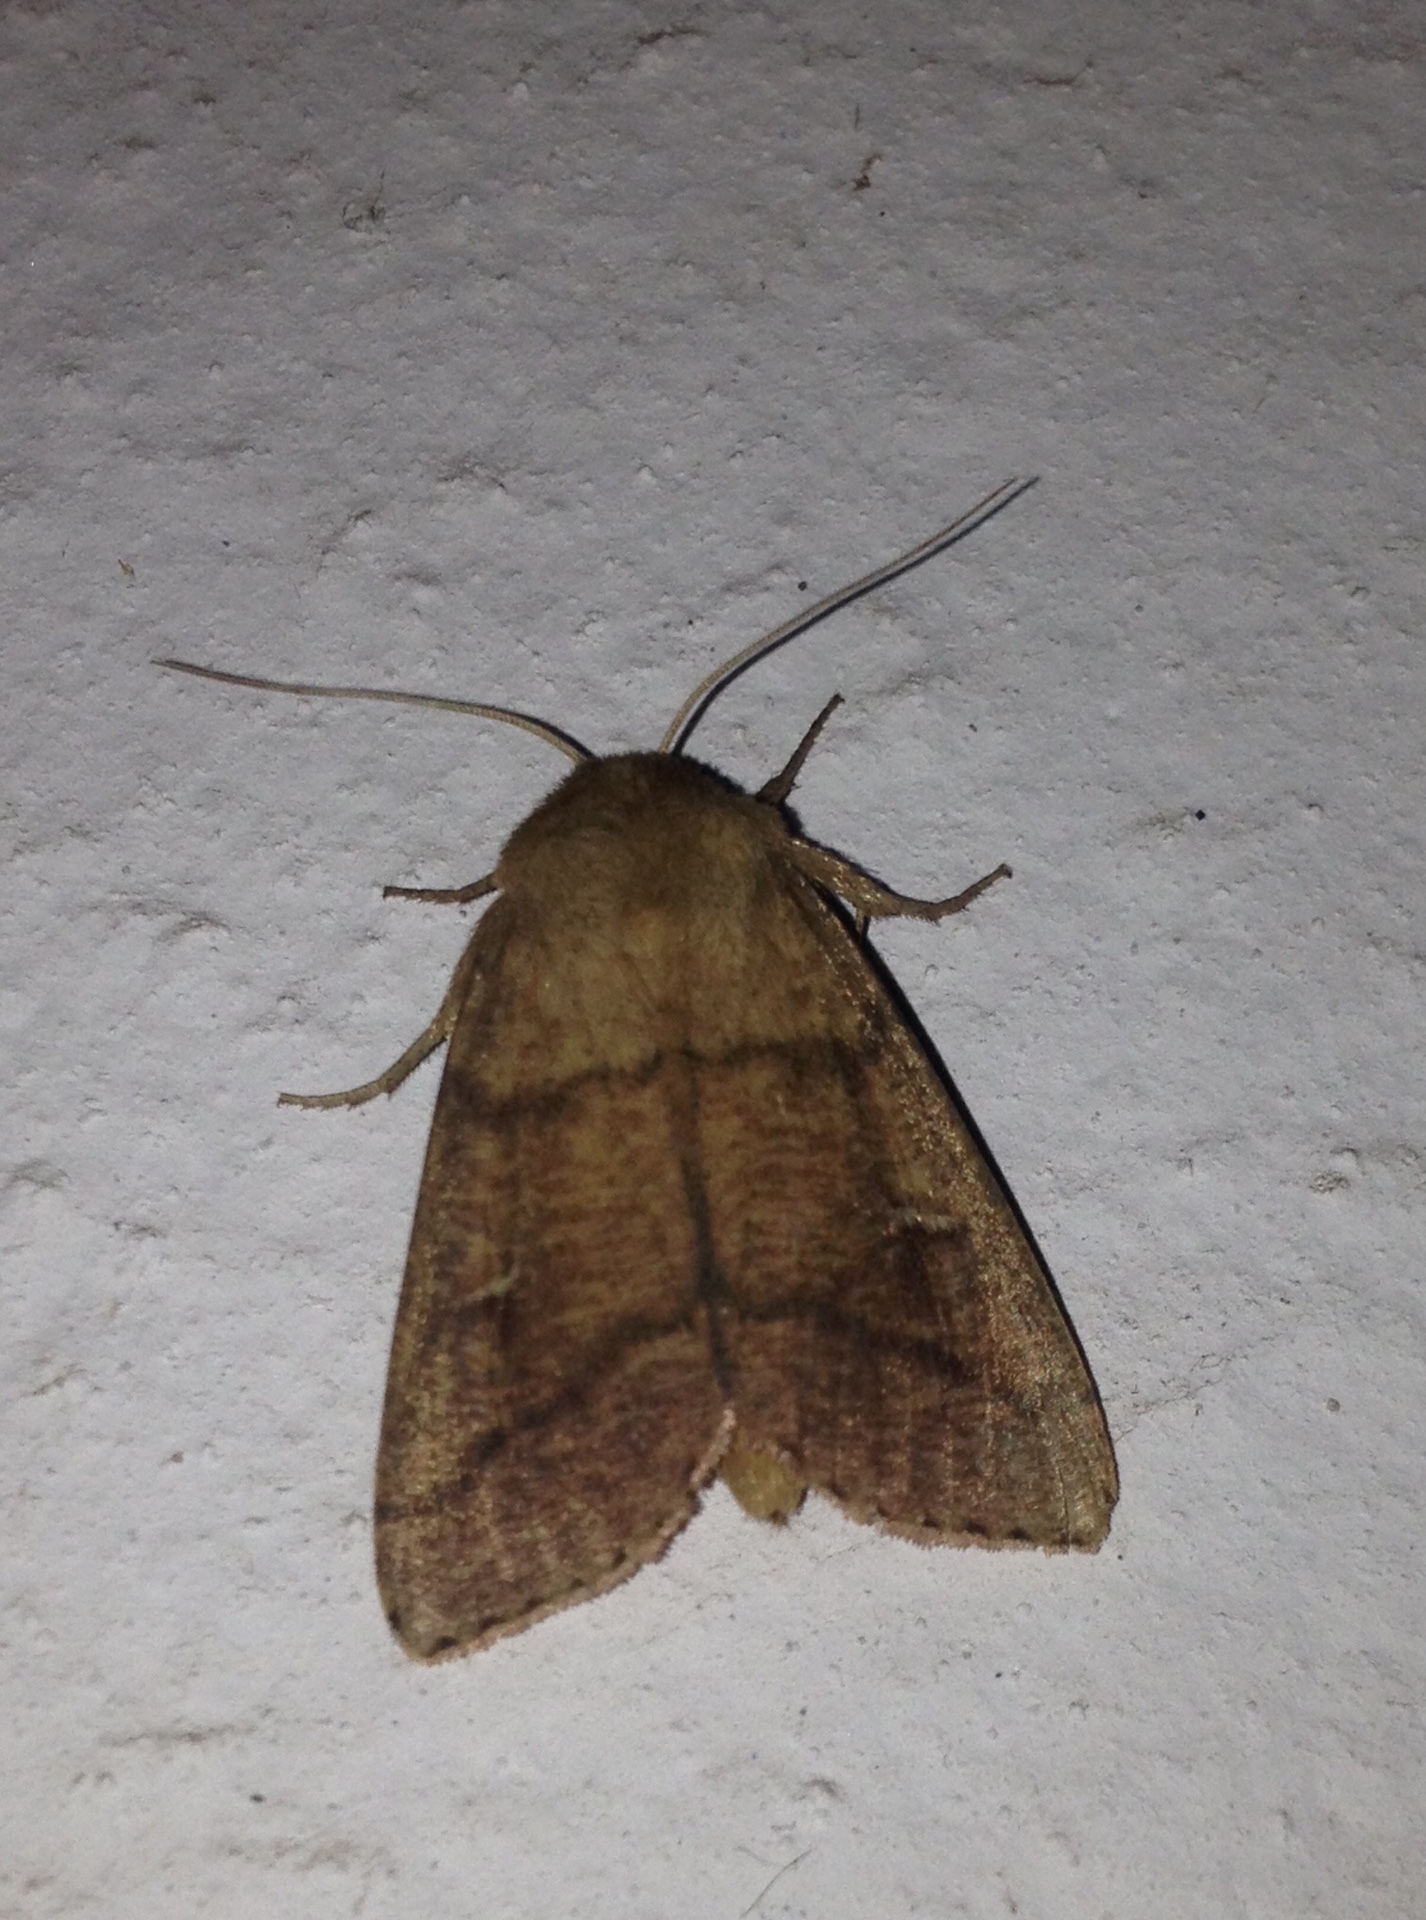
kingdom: Animalia
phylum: Arthropoda
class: Insecta
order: Lepidoptera
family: Noctuidae
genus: Mythimna
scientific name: Mythimna turca
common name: Double line
